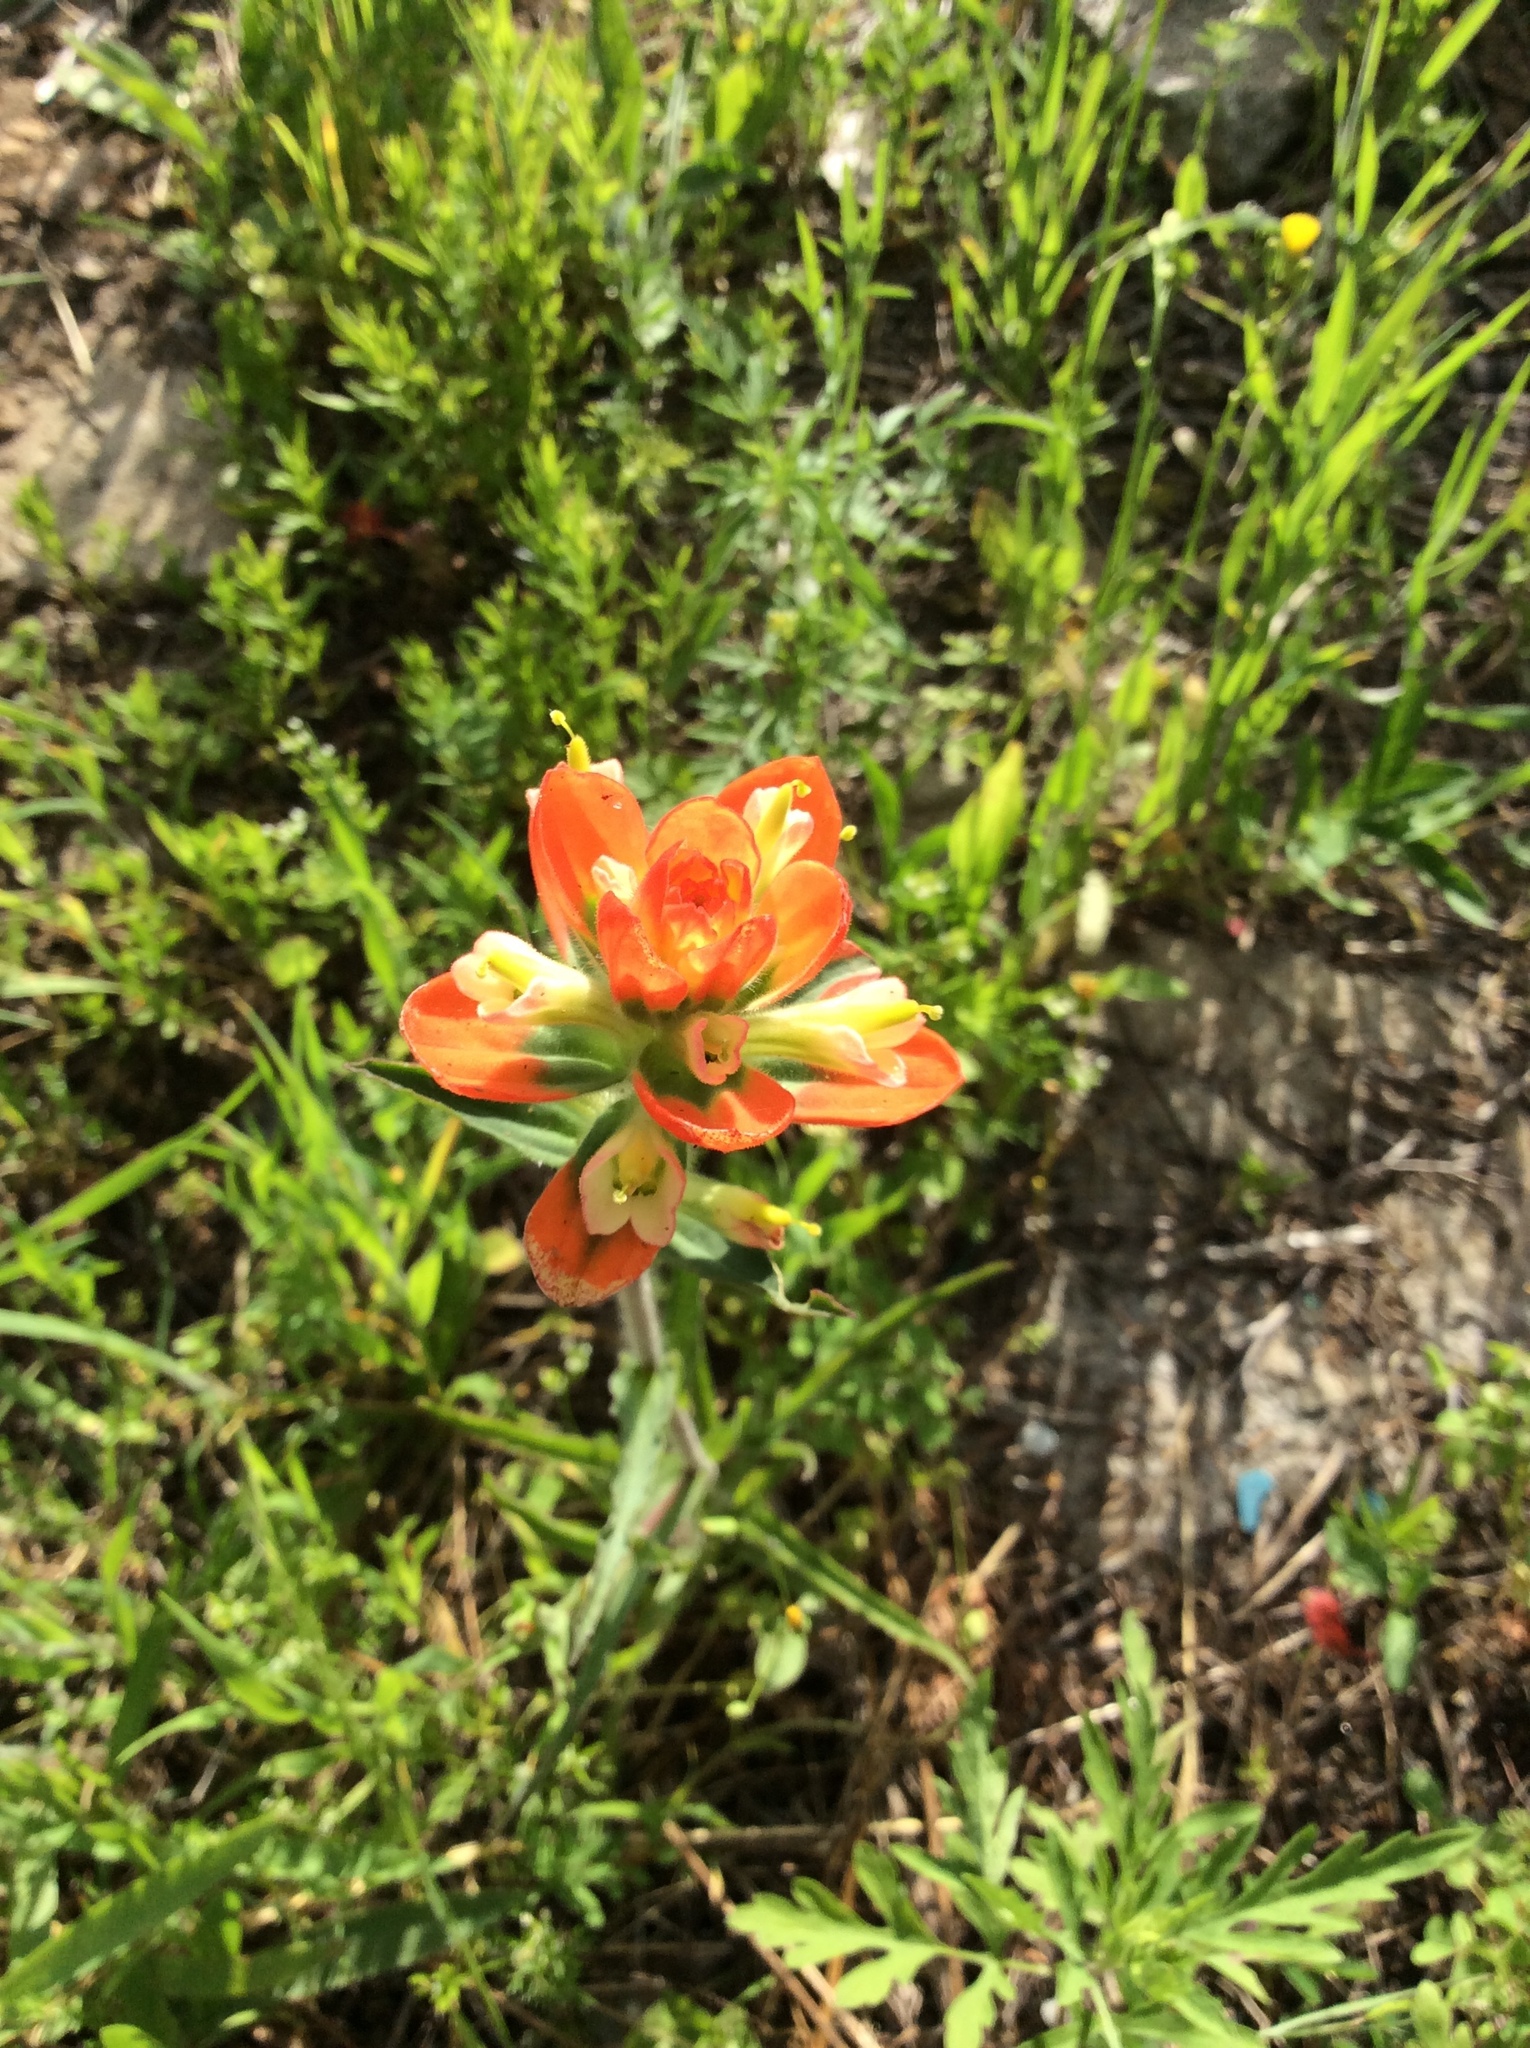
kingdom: Plantae
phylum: Tracheophyta
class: Magnoliopsida
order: Lamiales
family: Orobanchaceae
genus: Castilleja
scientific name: Castilleja indivisa
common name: Texas paintbrush
